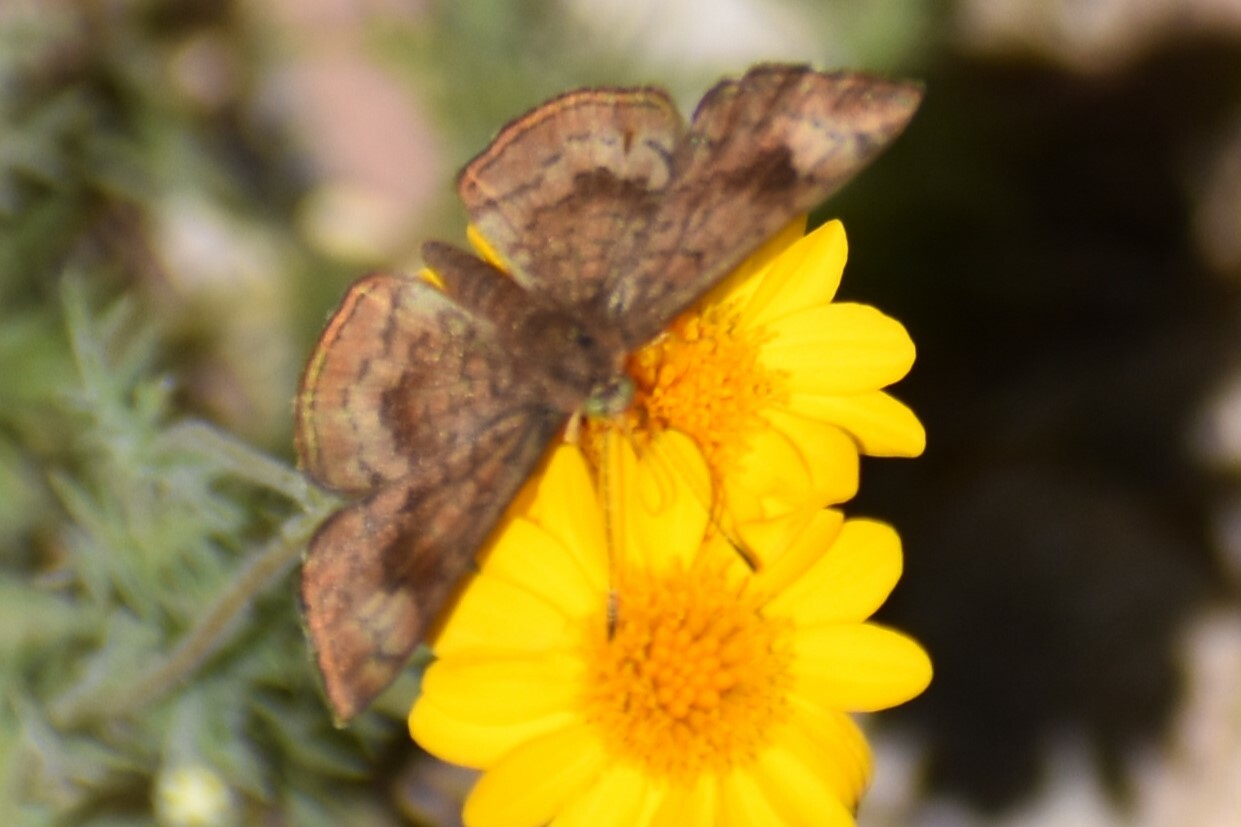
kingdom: Animalia
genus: Calephelis
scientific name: Calephelis nemesis
